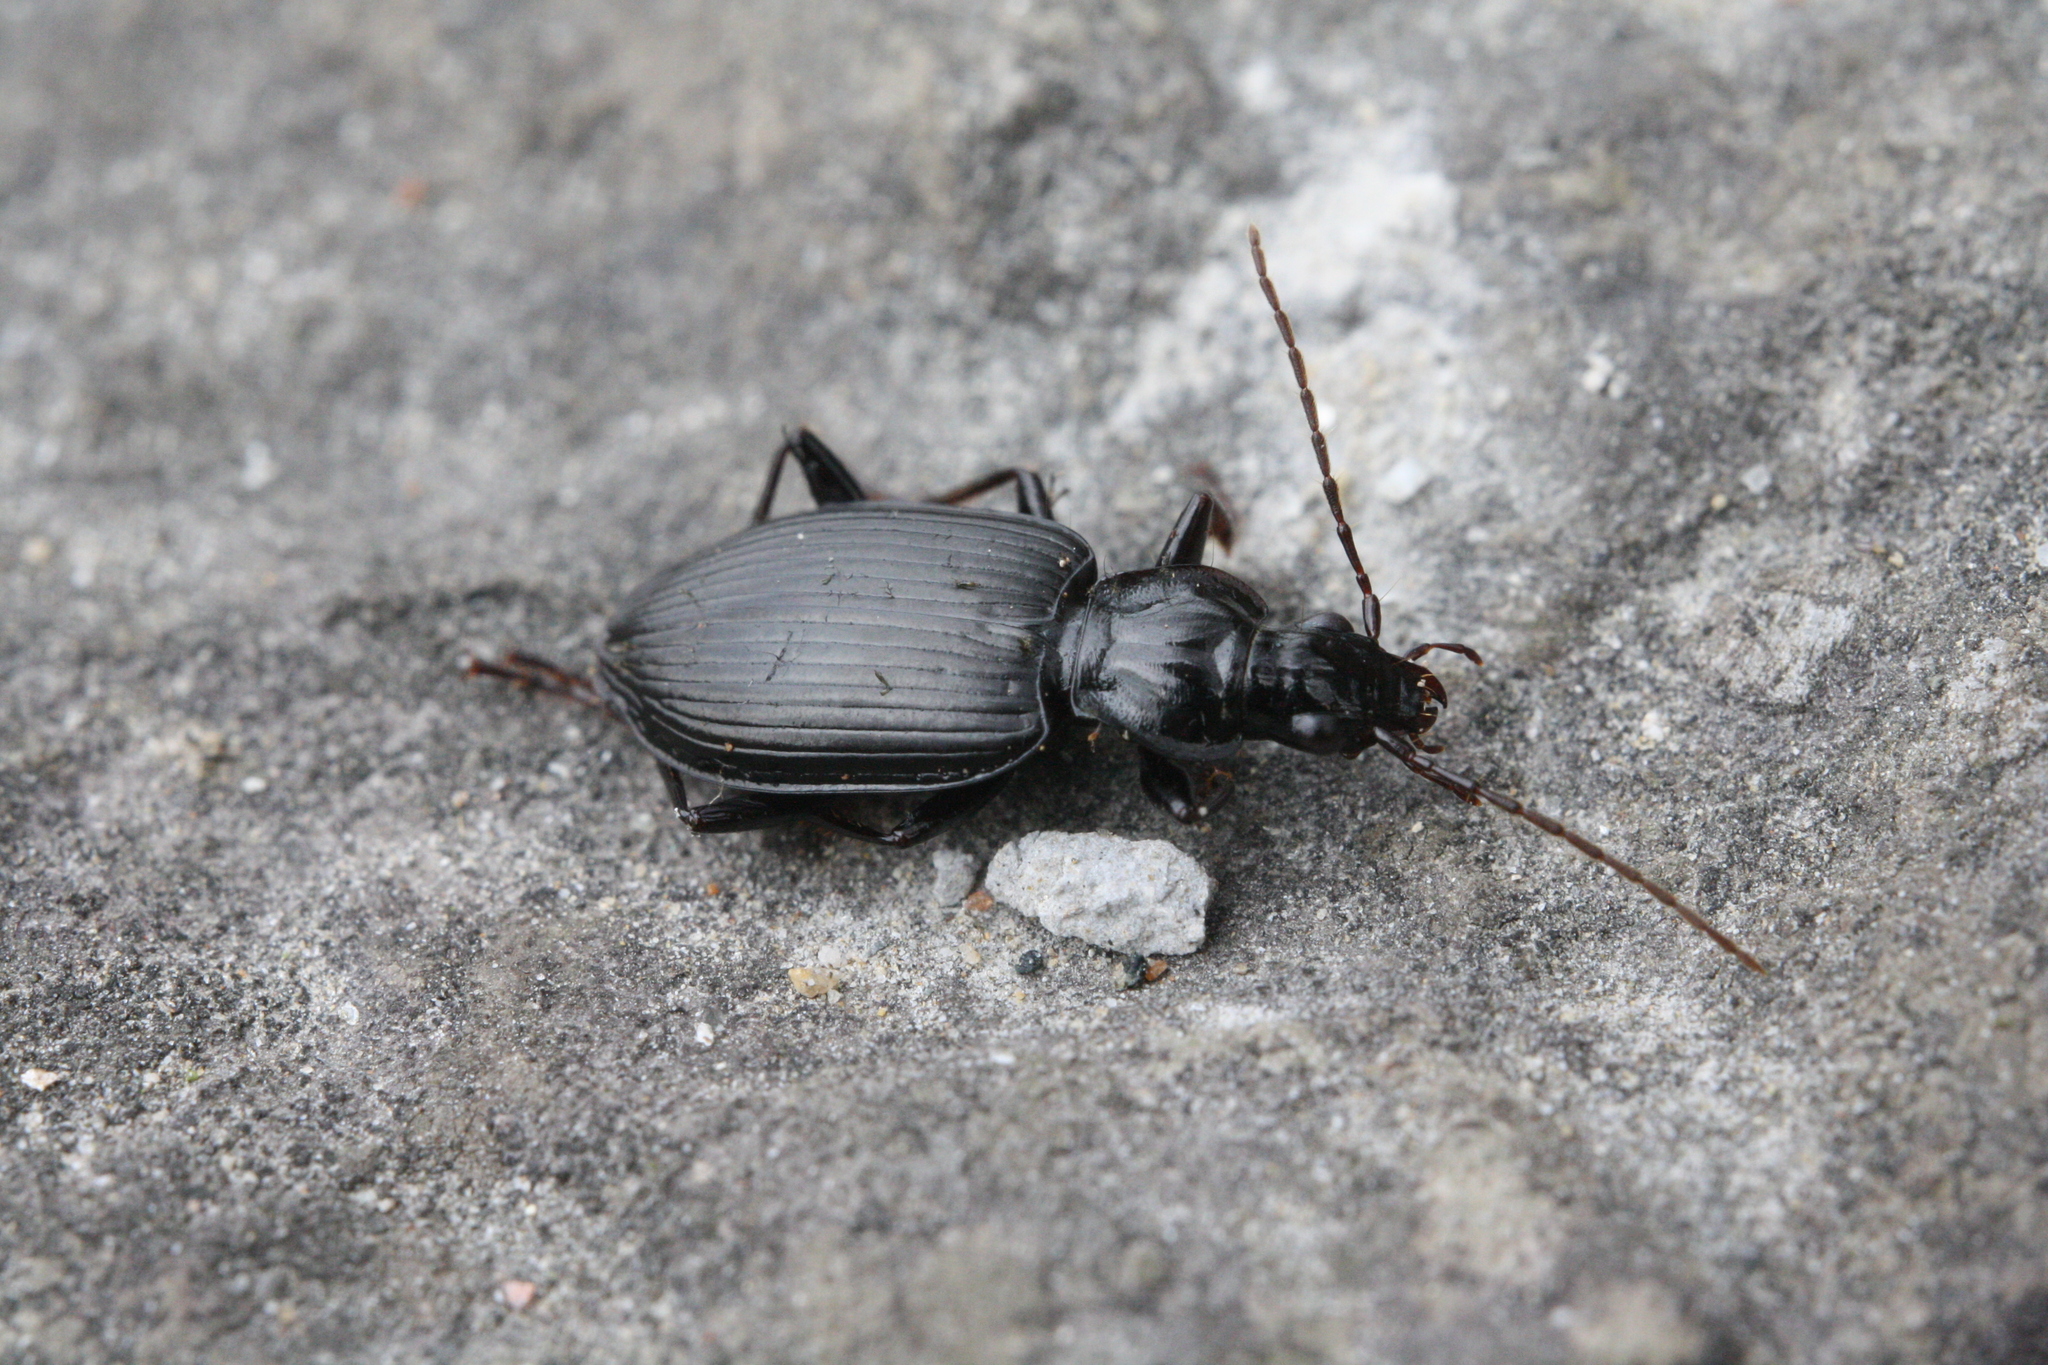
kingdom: Animalia
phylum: Arthropoda
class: Insecta
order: Coleoptera
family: Carabidae
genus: Platynus
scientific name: Platynus assimilis
